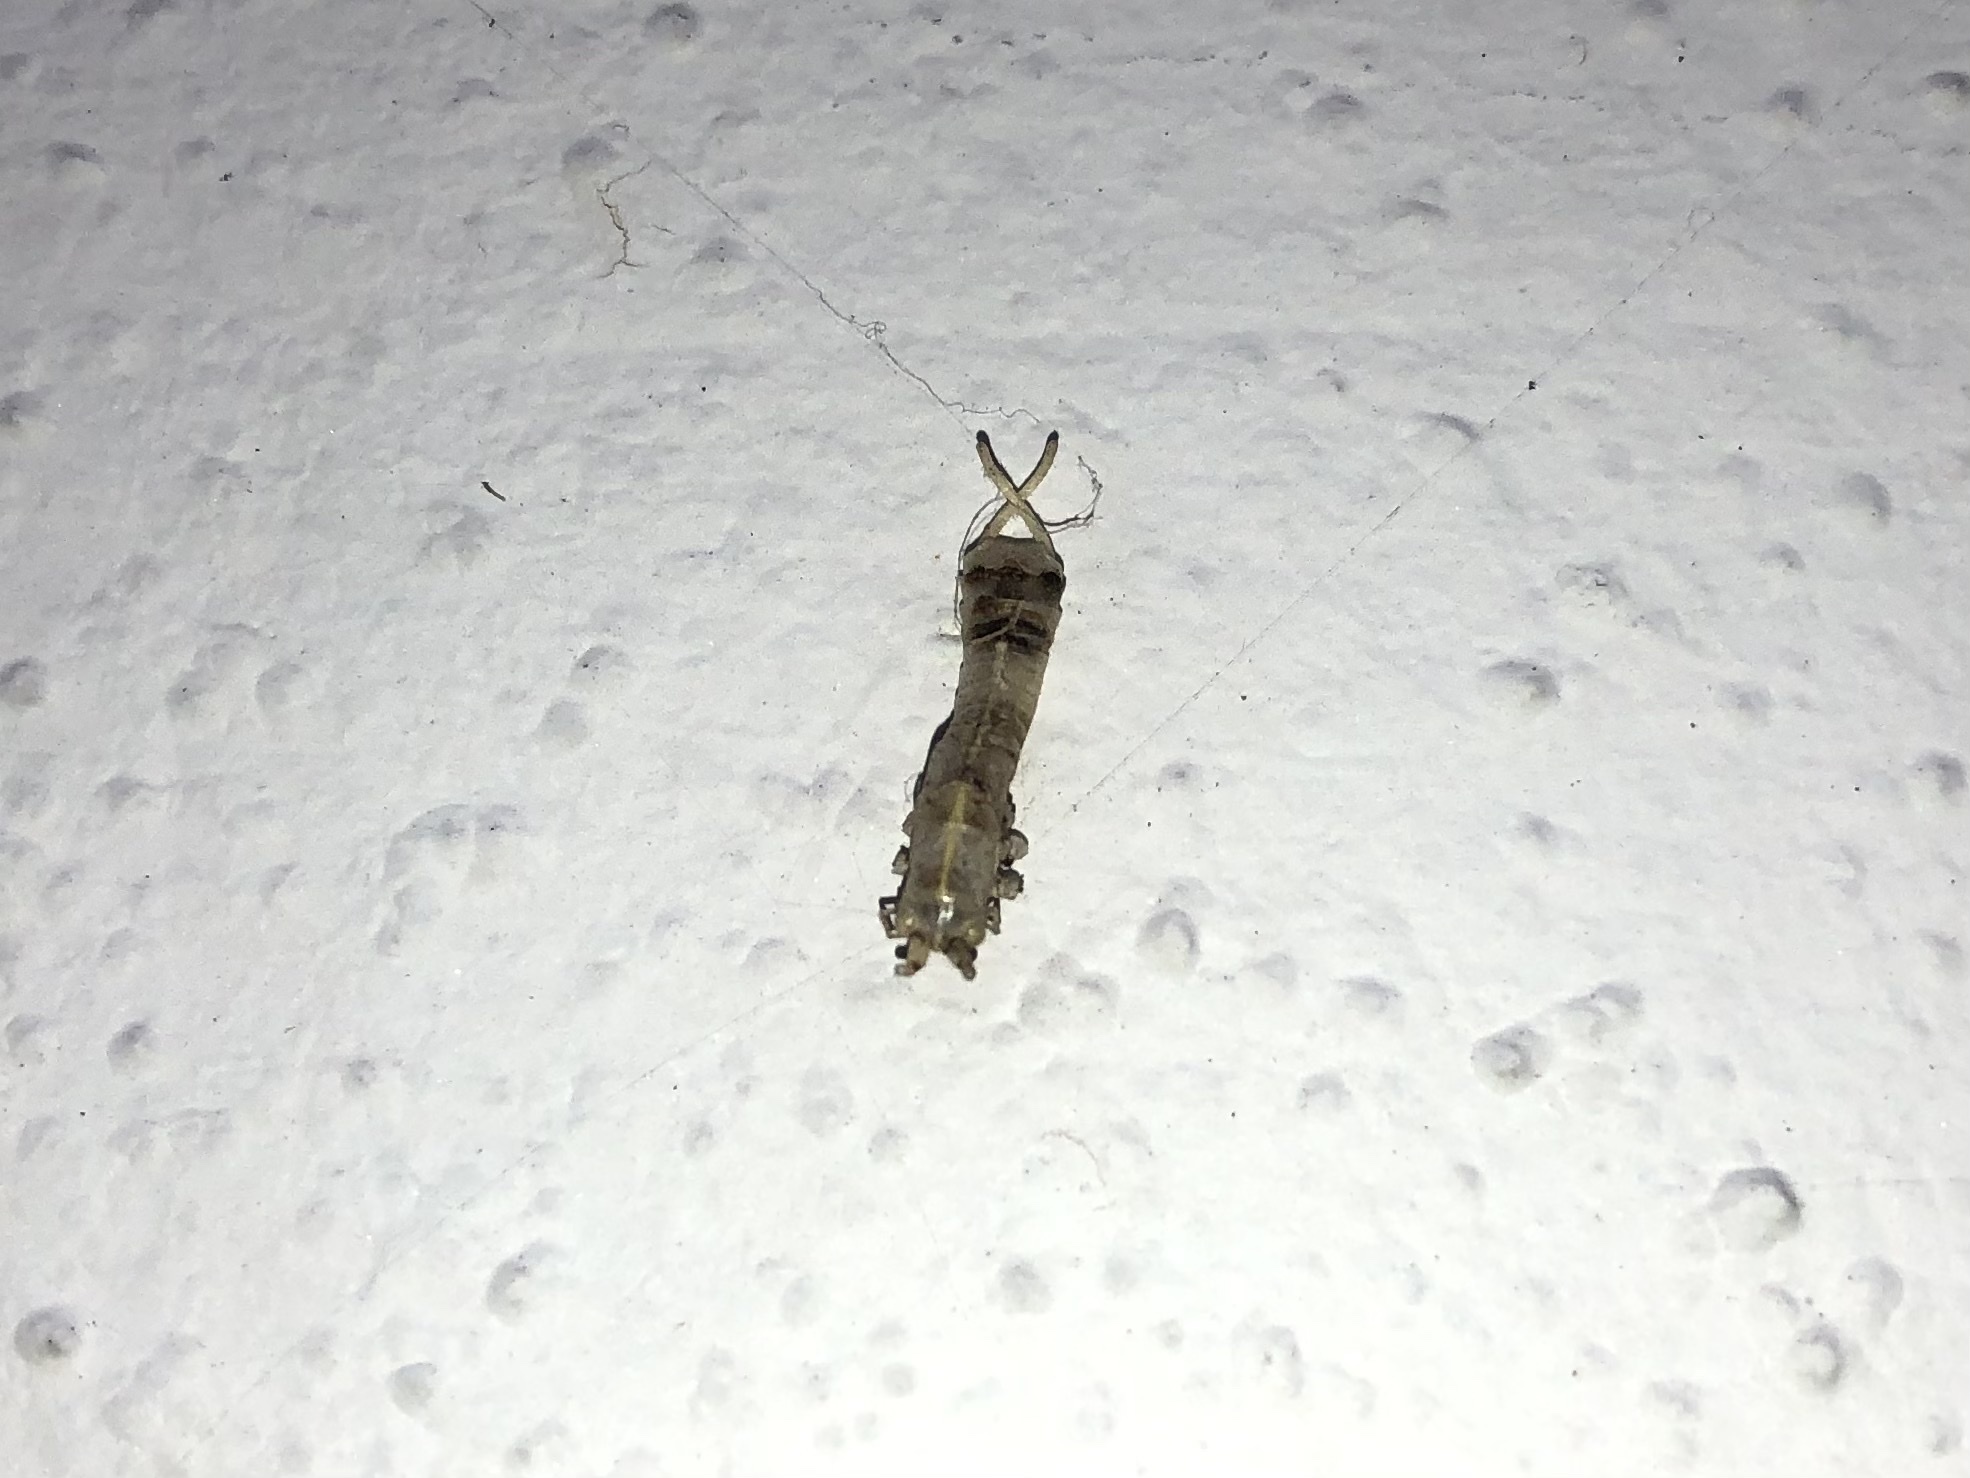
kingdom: Animalia
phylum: Arthropoda
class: Insecta
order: Orthoptera
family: Tettigoniidae
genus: Meconema
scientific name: Meconema meridionale
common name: Southern oak bush-cricket
